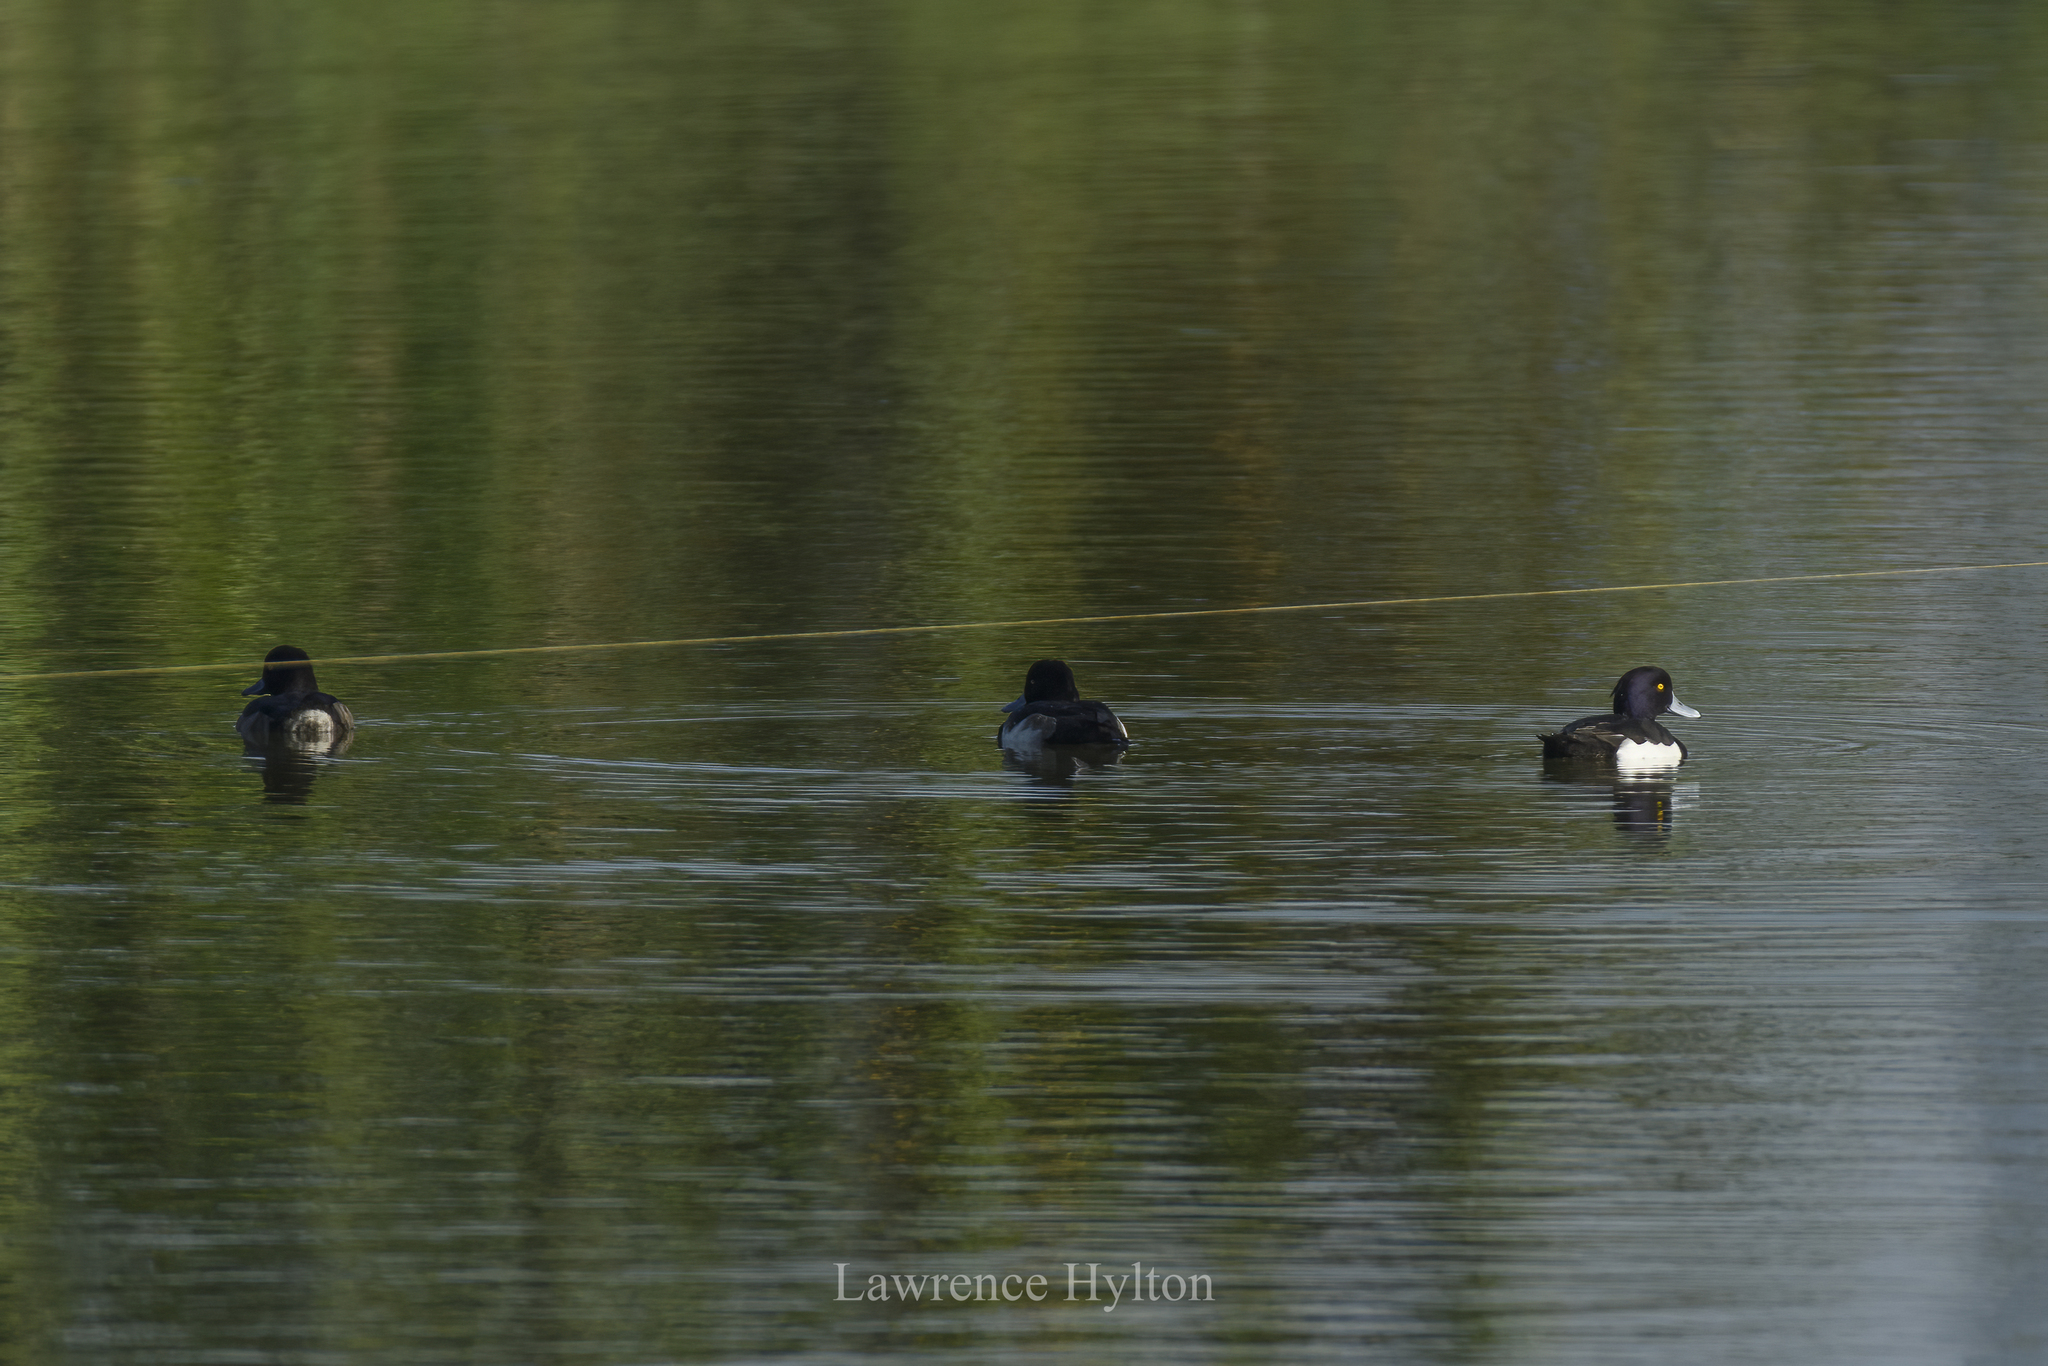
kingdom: Animalia
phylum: Chordata
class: Aves
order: Anseriformes
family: Anatidae
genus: Aythya
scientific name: Aythya fuligula
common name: Tufted duck
